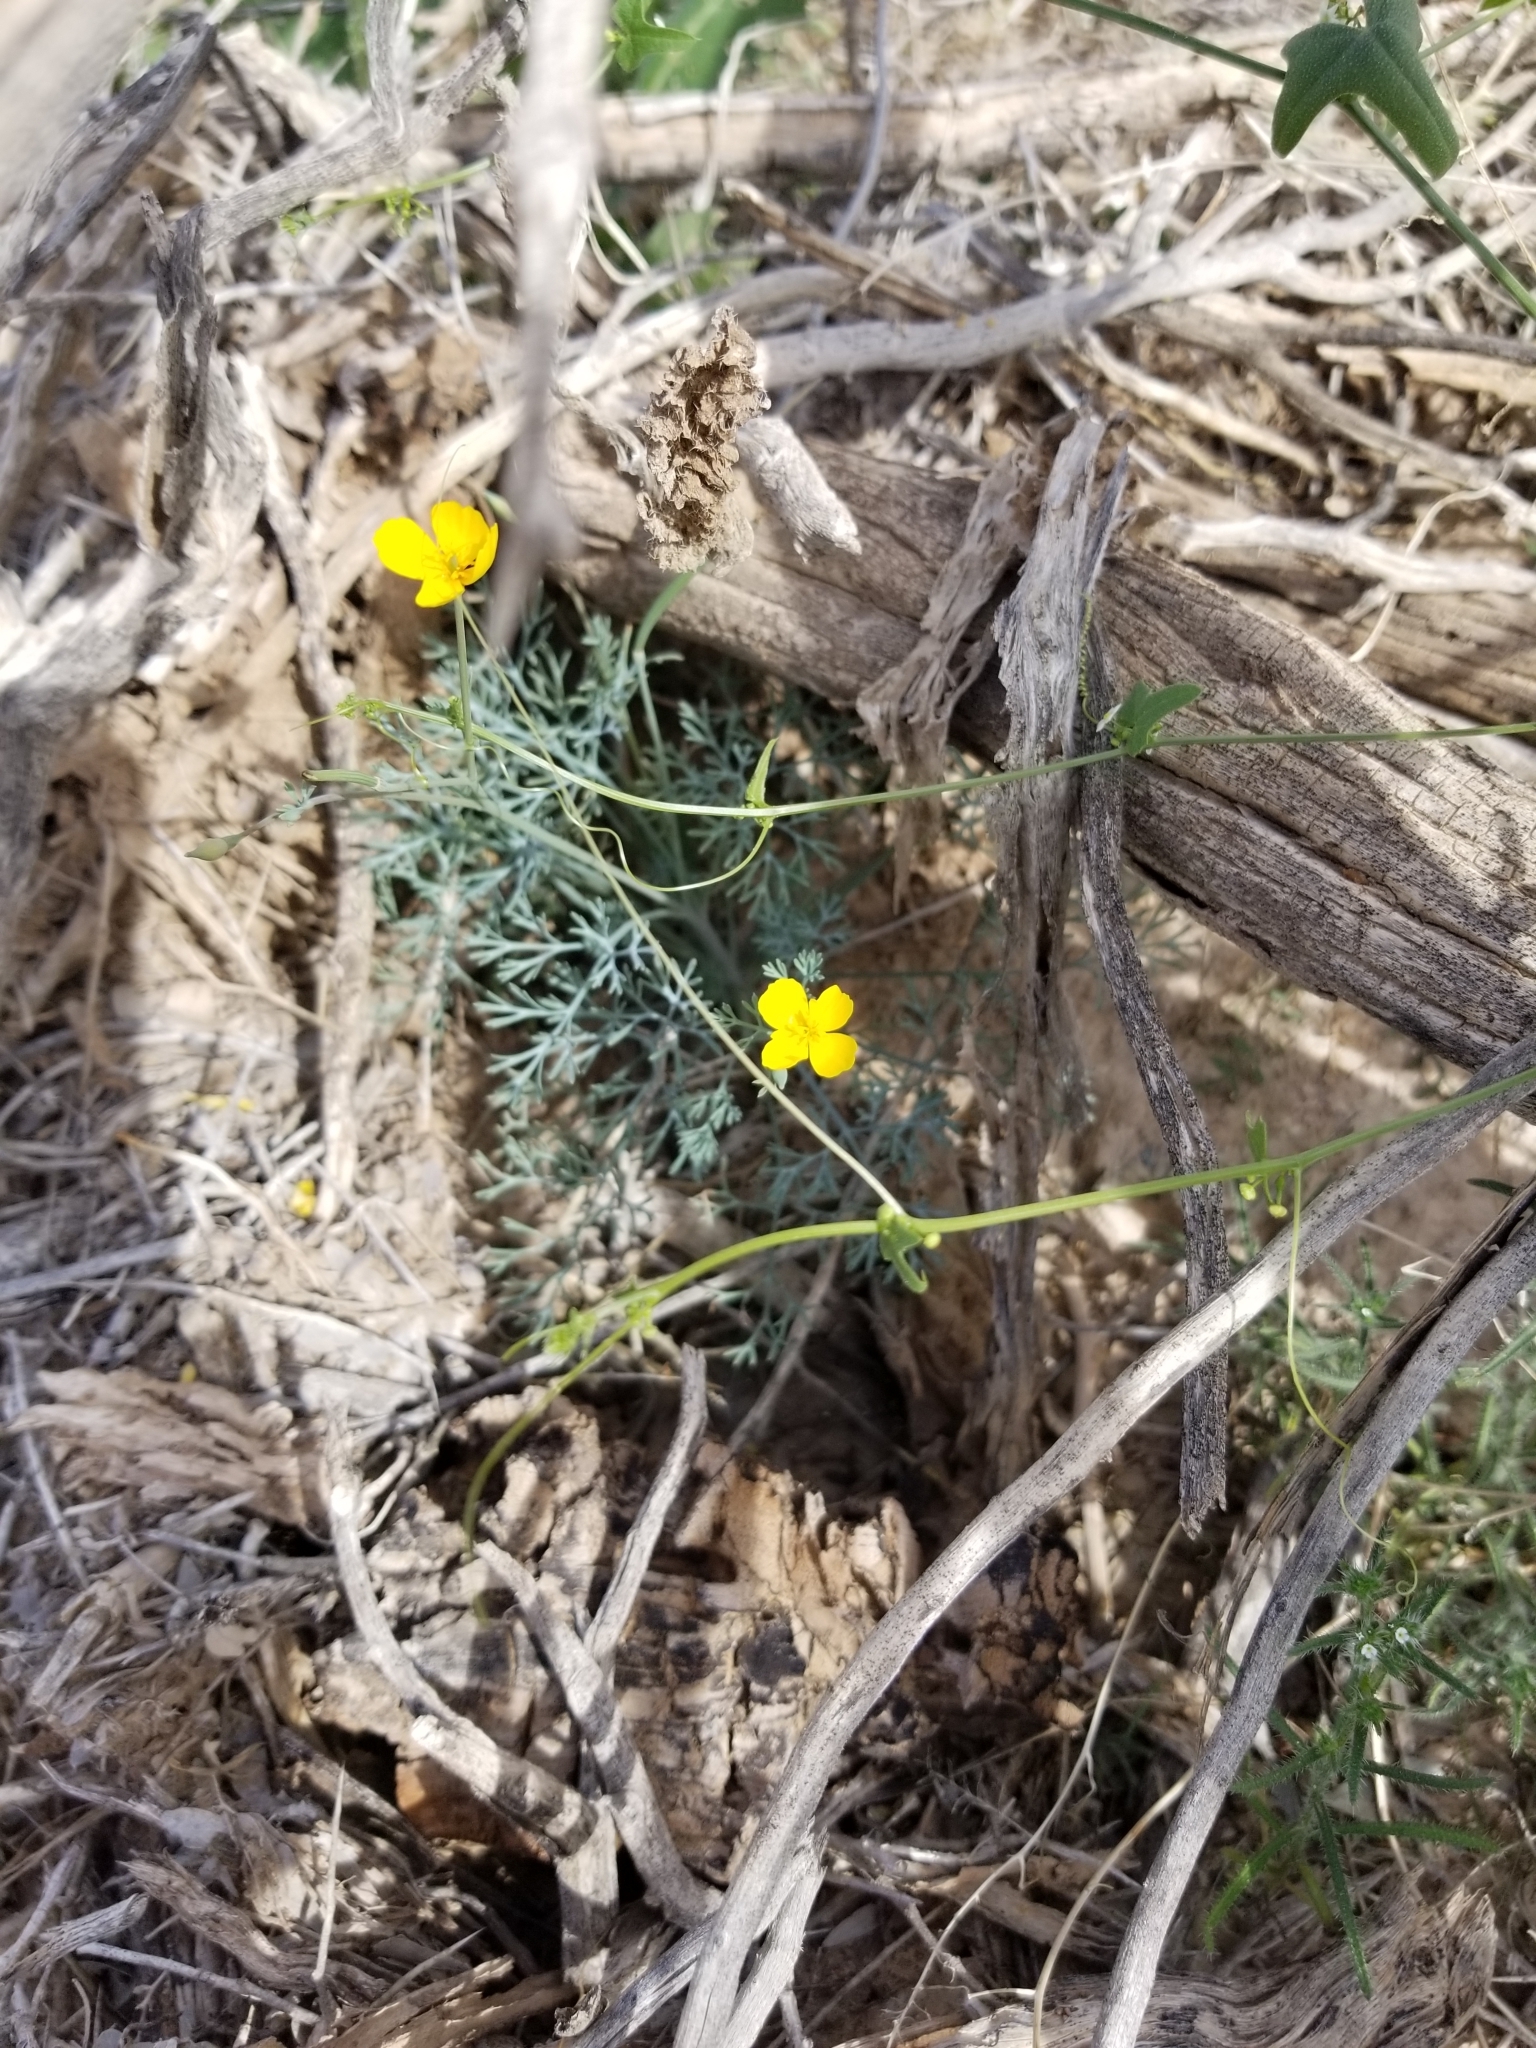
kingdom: Plantae
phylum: Tracheophyta
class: Magnoliopsida
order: Ranunculales
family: Papaveraceae
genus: Eschscholzia
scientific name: Eschscholzia minutiflora
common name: Small-flower california-poppy
